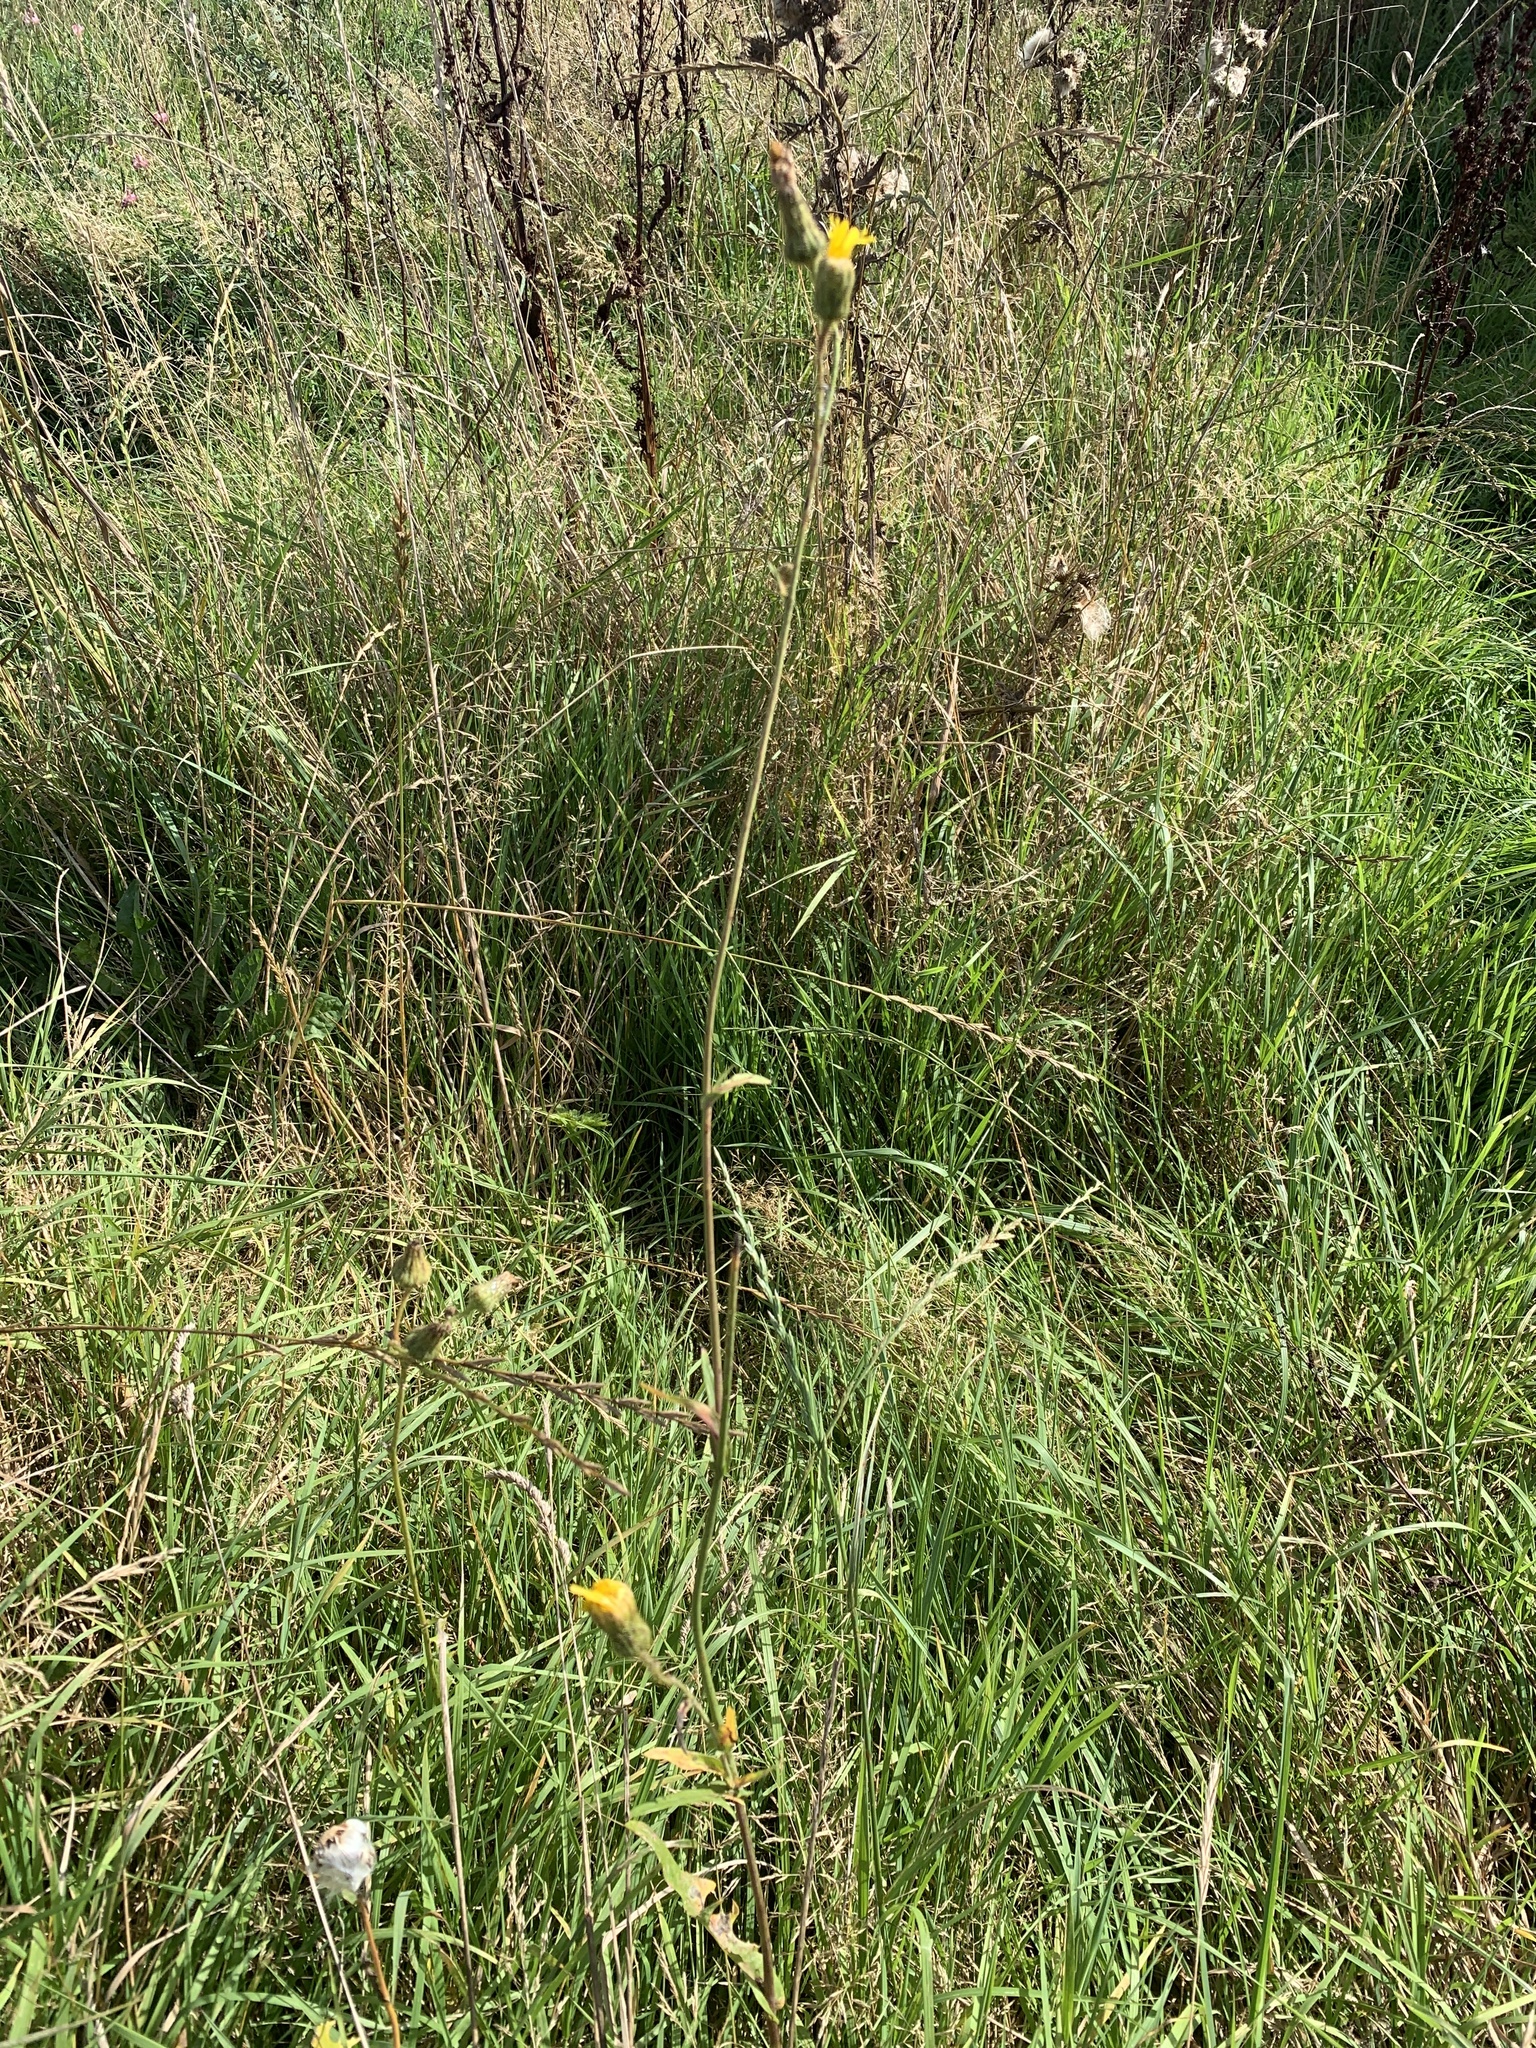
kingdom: Plantae
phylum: Tracheophyta
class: Magnoliopsida
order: Asterales
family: Asteraceae
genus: Sonchus
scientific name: Sonchus arvensis
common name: Perennial sow-thistle
